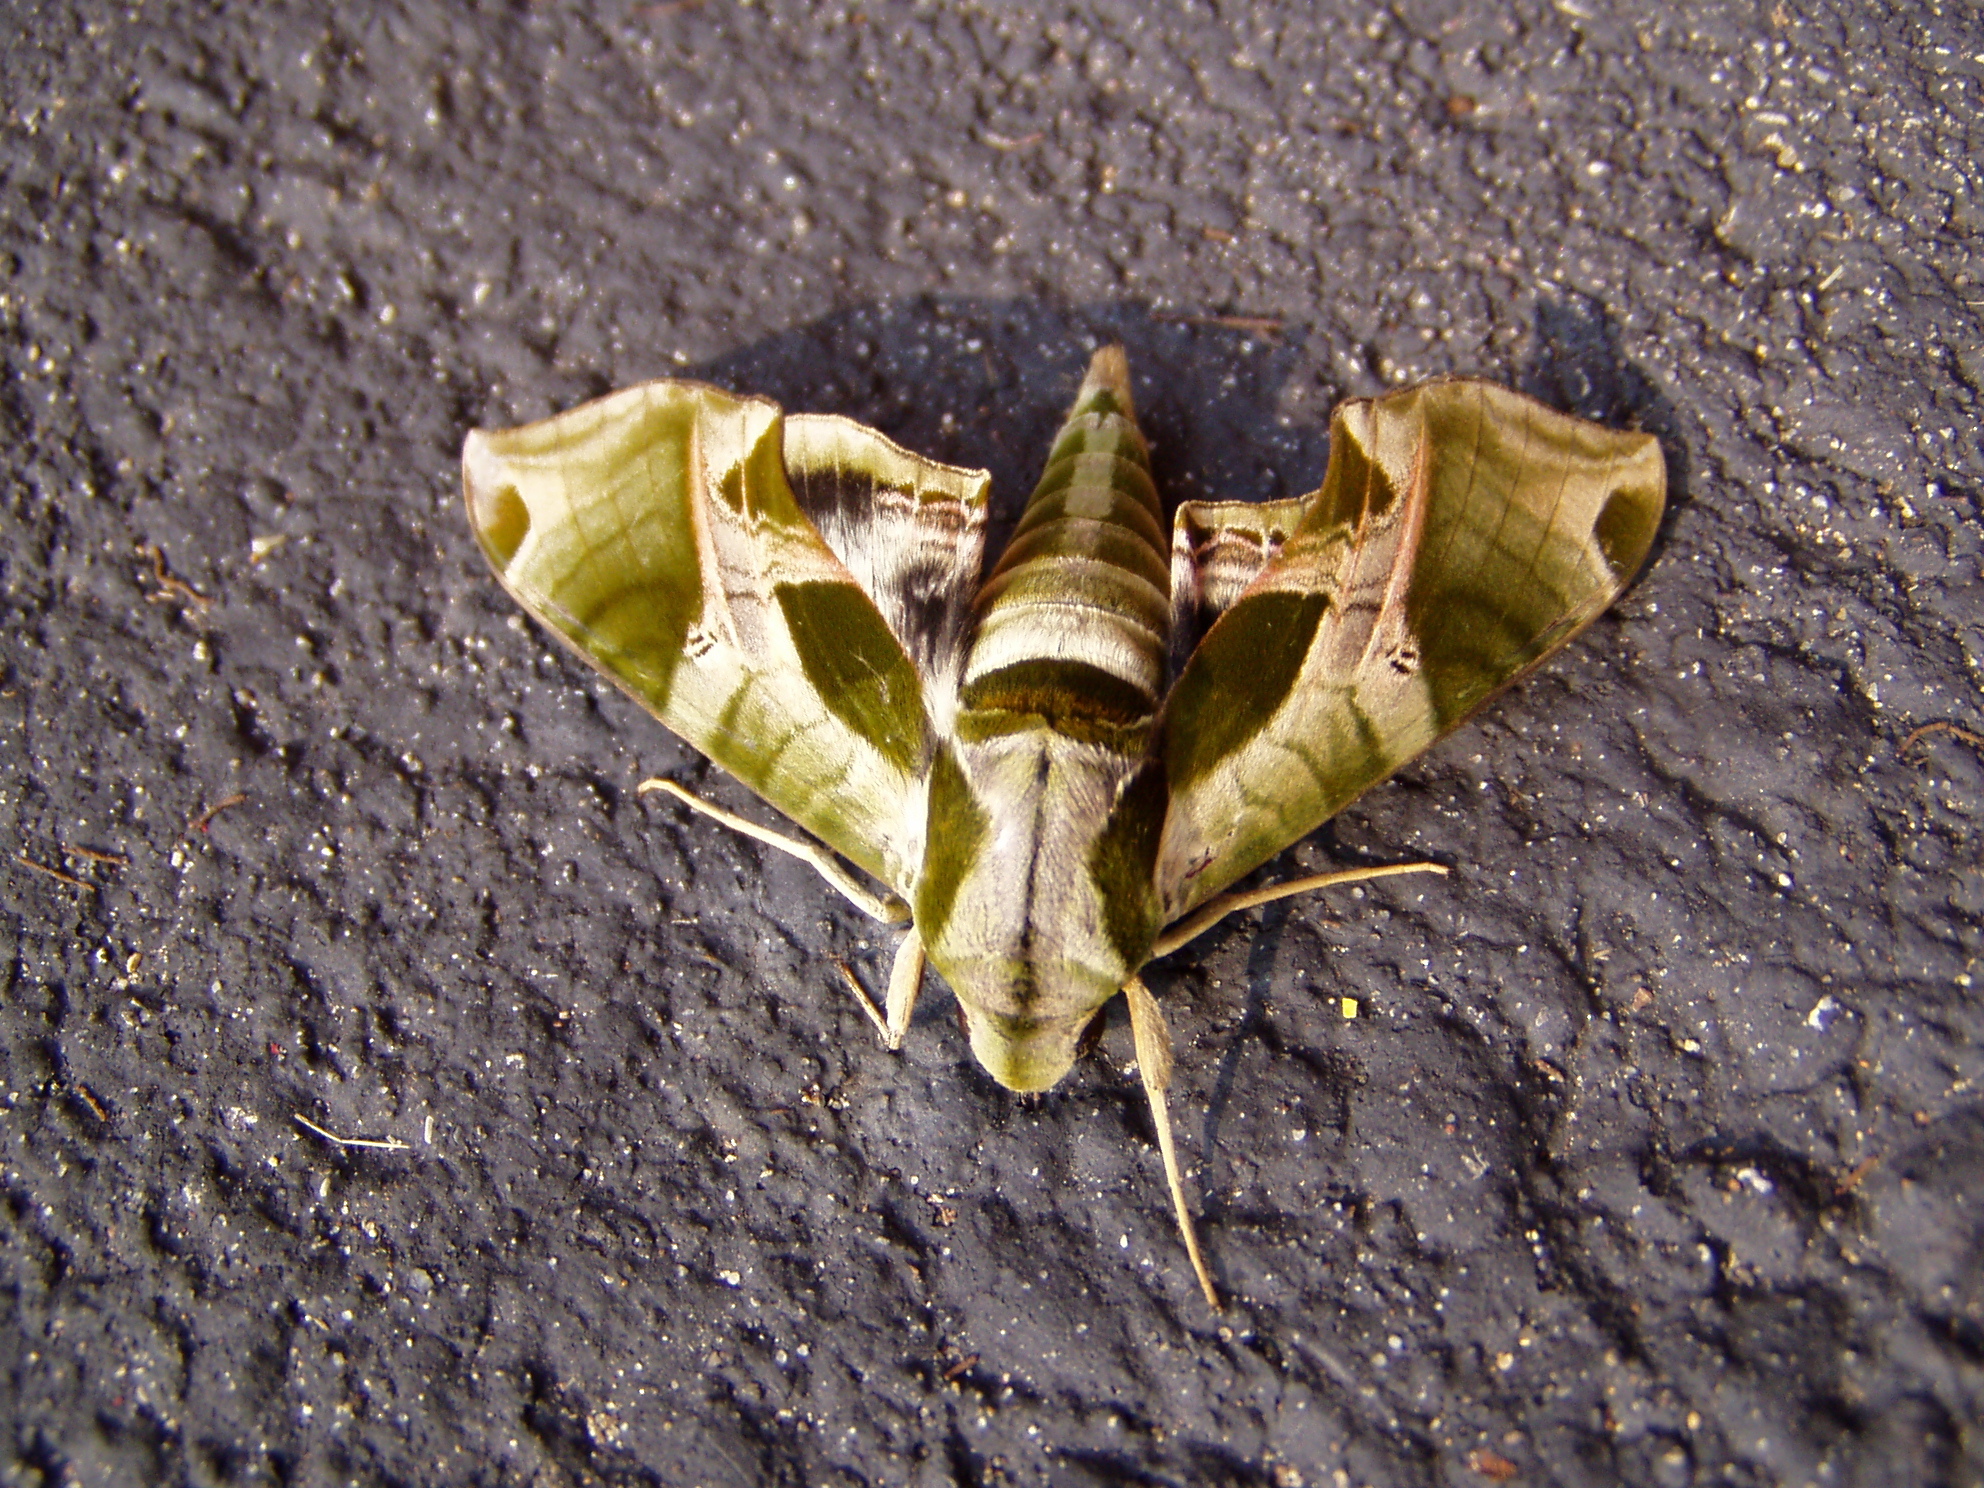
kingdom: Animalia
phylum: Arthropoda
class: Insecta
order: Lepidoptera
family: Sphingidae
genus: Eumorpha
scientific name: Eumorpha pandorus
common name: Pandora sphinx
